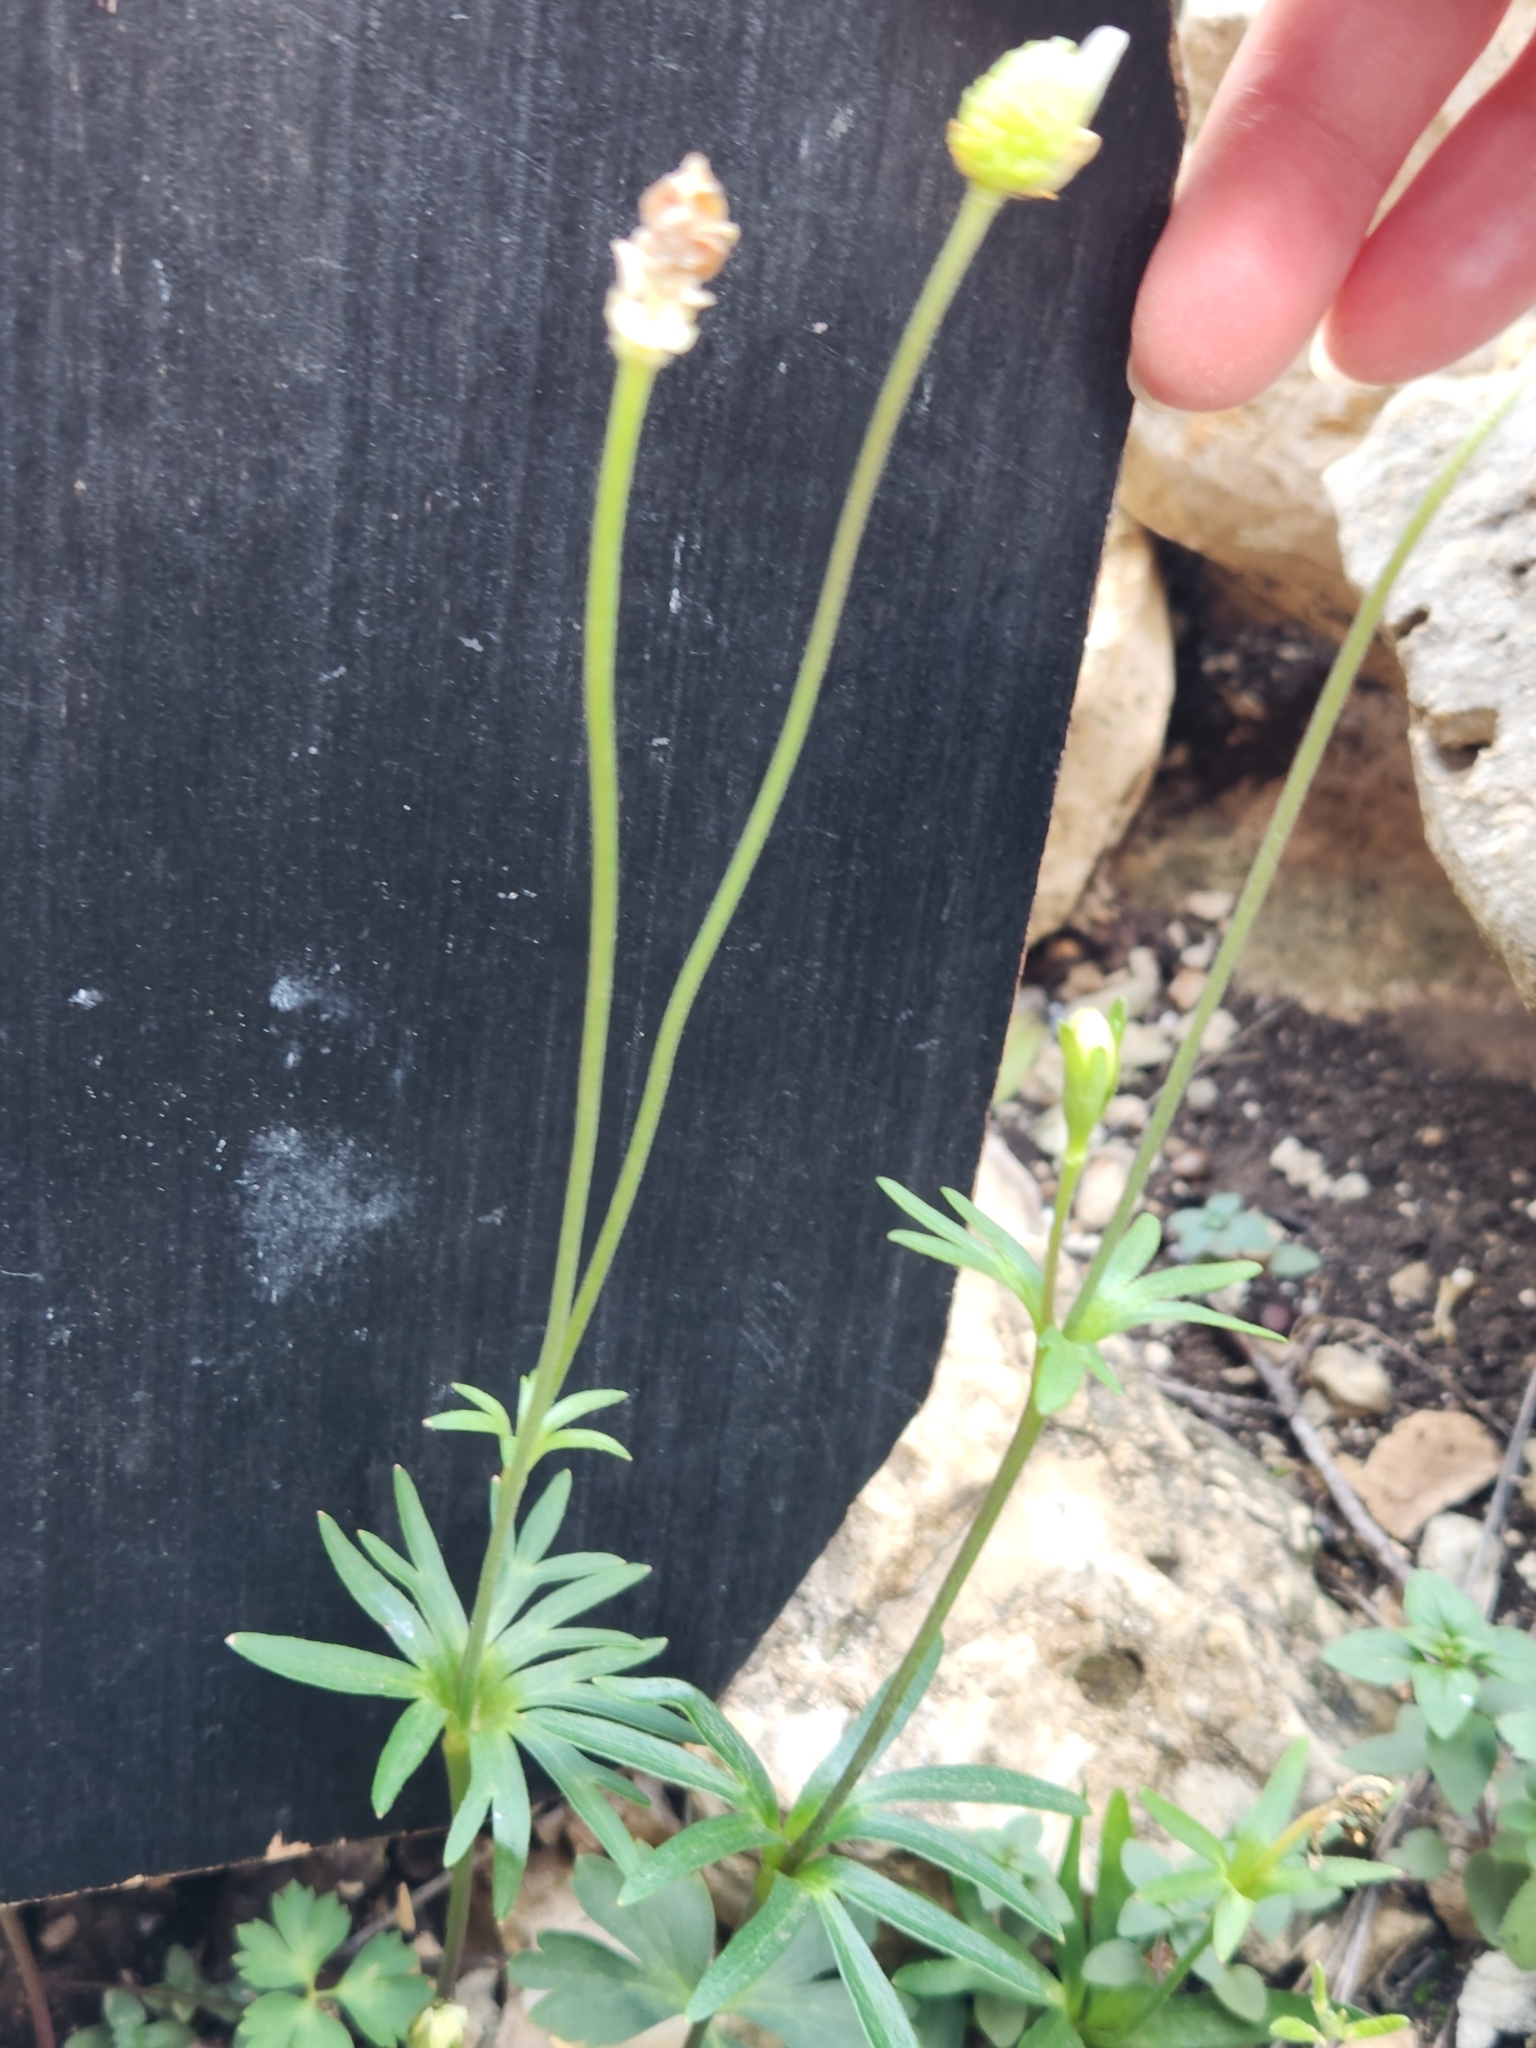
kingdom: Plantae
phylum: Tracheophyta
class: Magnoliopsida
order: Ranunculales
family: Ranunculaceae
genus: Anemone
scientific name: Anemone edwardsiana
